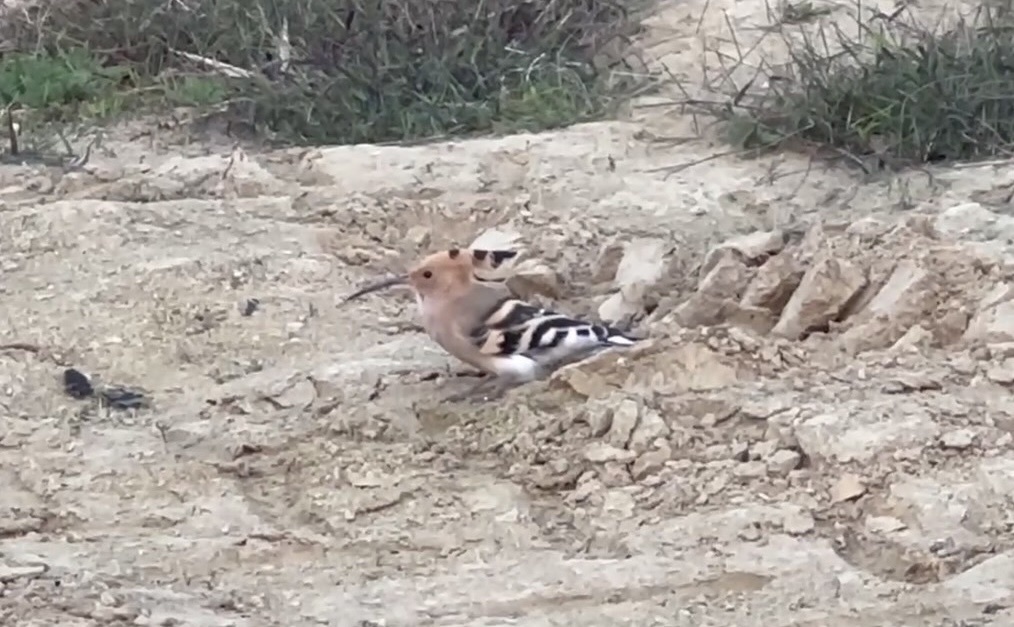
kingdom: Animalia
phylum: Chordata
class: Aves
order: Bucerotiformes
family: Upupidae
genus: Upupa
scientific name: Upupa epops
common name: Eurasian hoopoe
